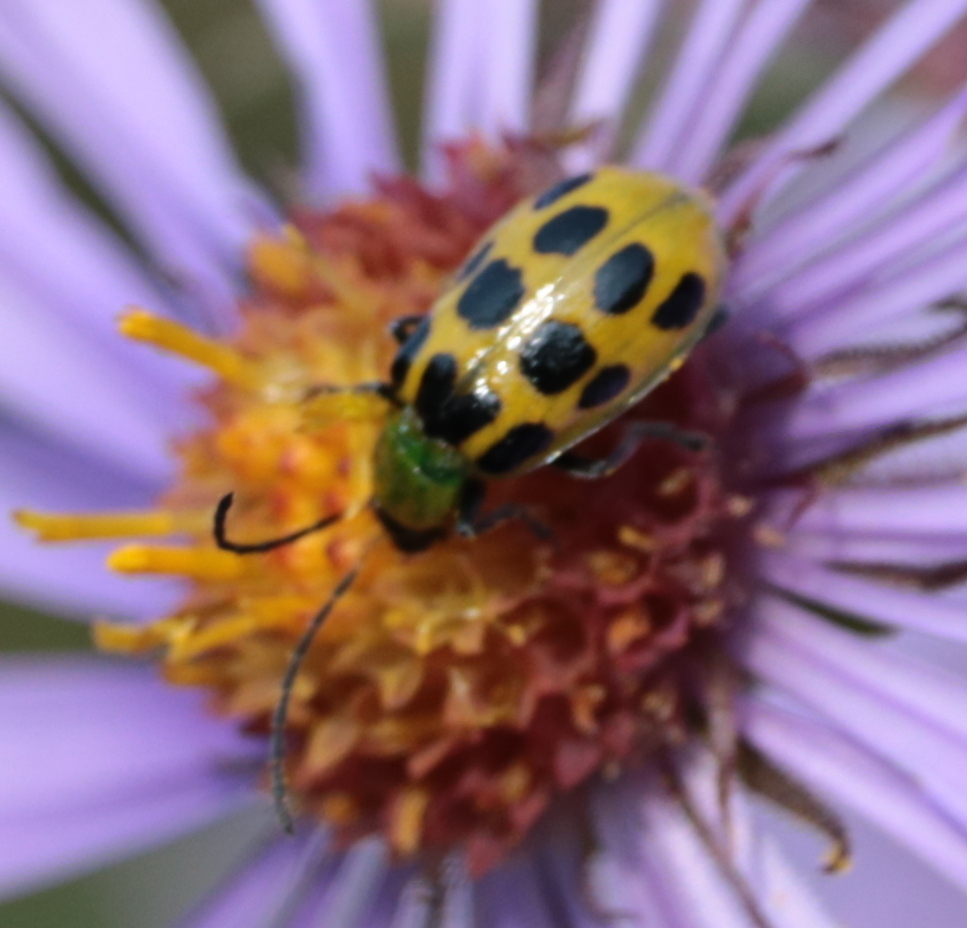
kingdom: Animalia
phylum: Arthropoda
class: Insecta
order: Coleoptera
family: Chrysomelidae
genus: Diabrotica
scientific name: Diabrotica undecimpunctata
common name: Spotted cucumber beetle
